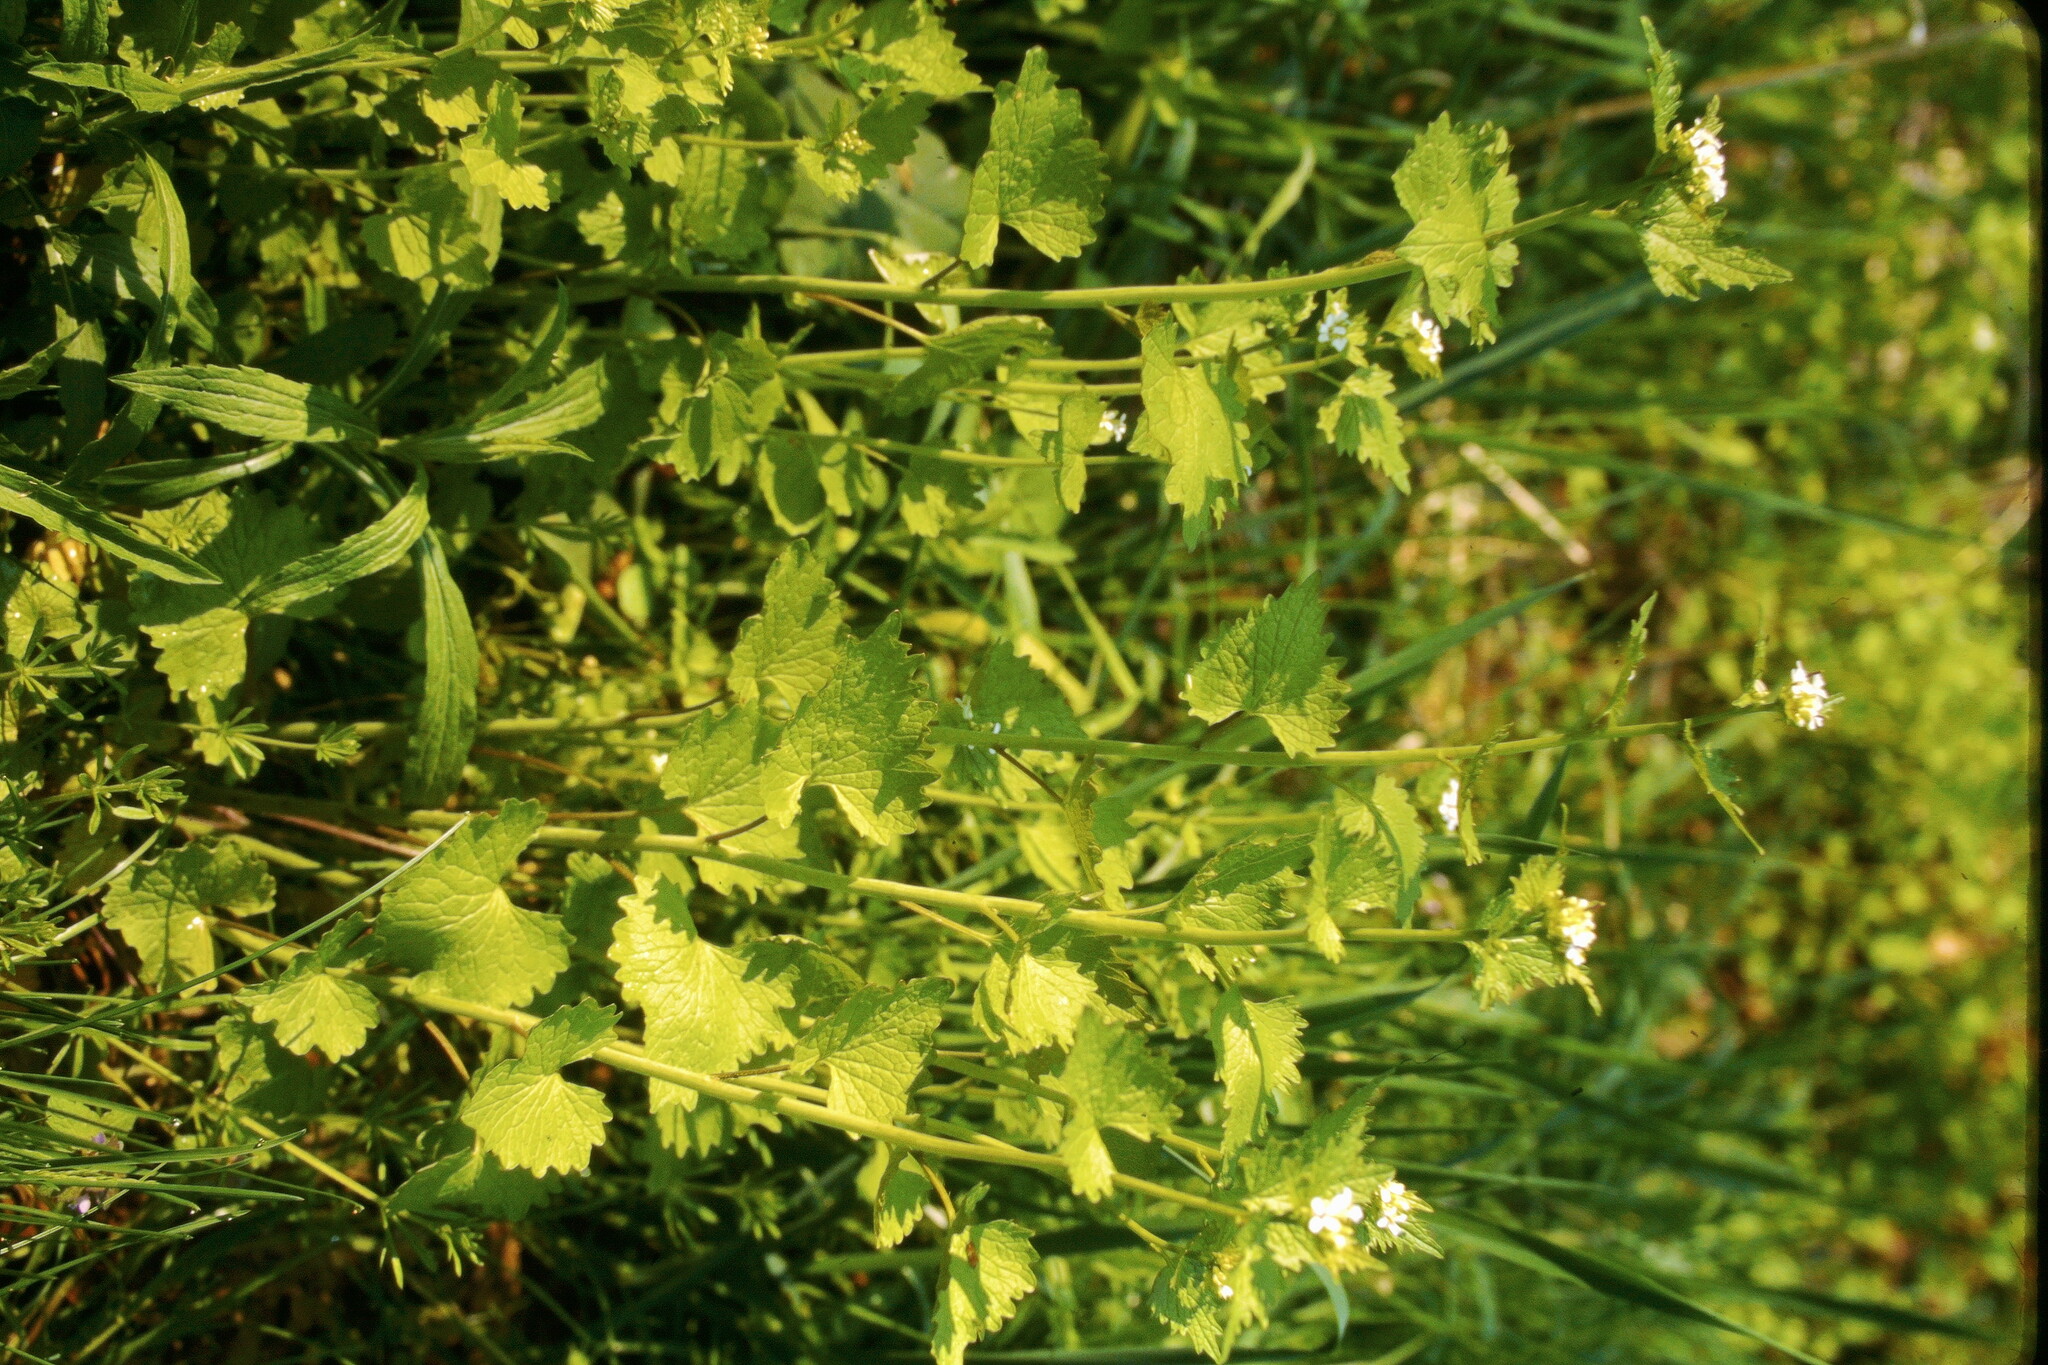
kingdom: Plantae
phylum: Tracheophyta
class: Magnoliopsida
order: Brassicales
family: Brassicaceae
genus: Alliaria
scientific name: Alliaria petiolata
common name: Garlic mustard
